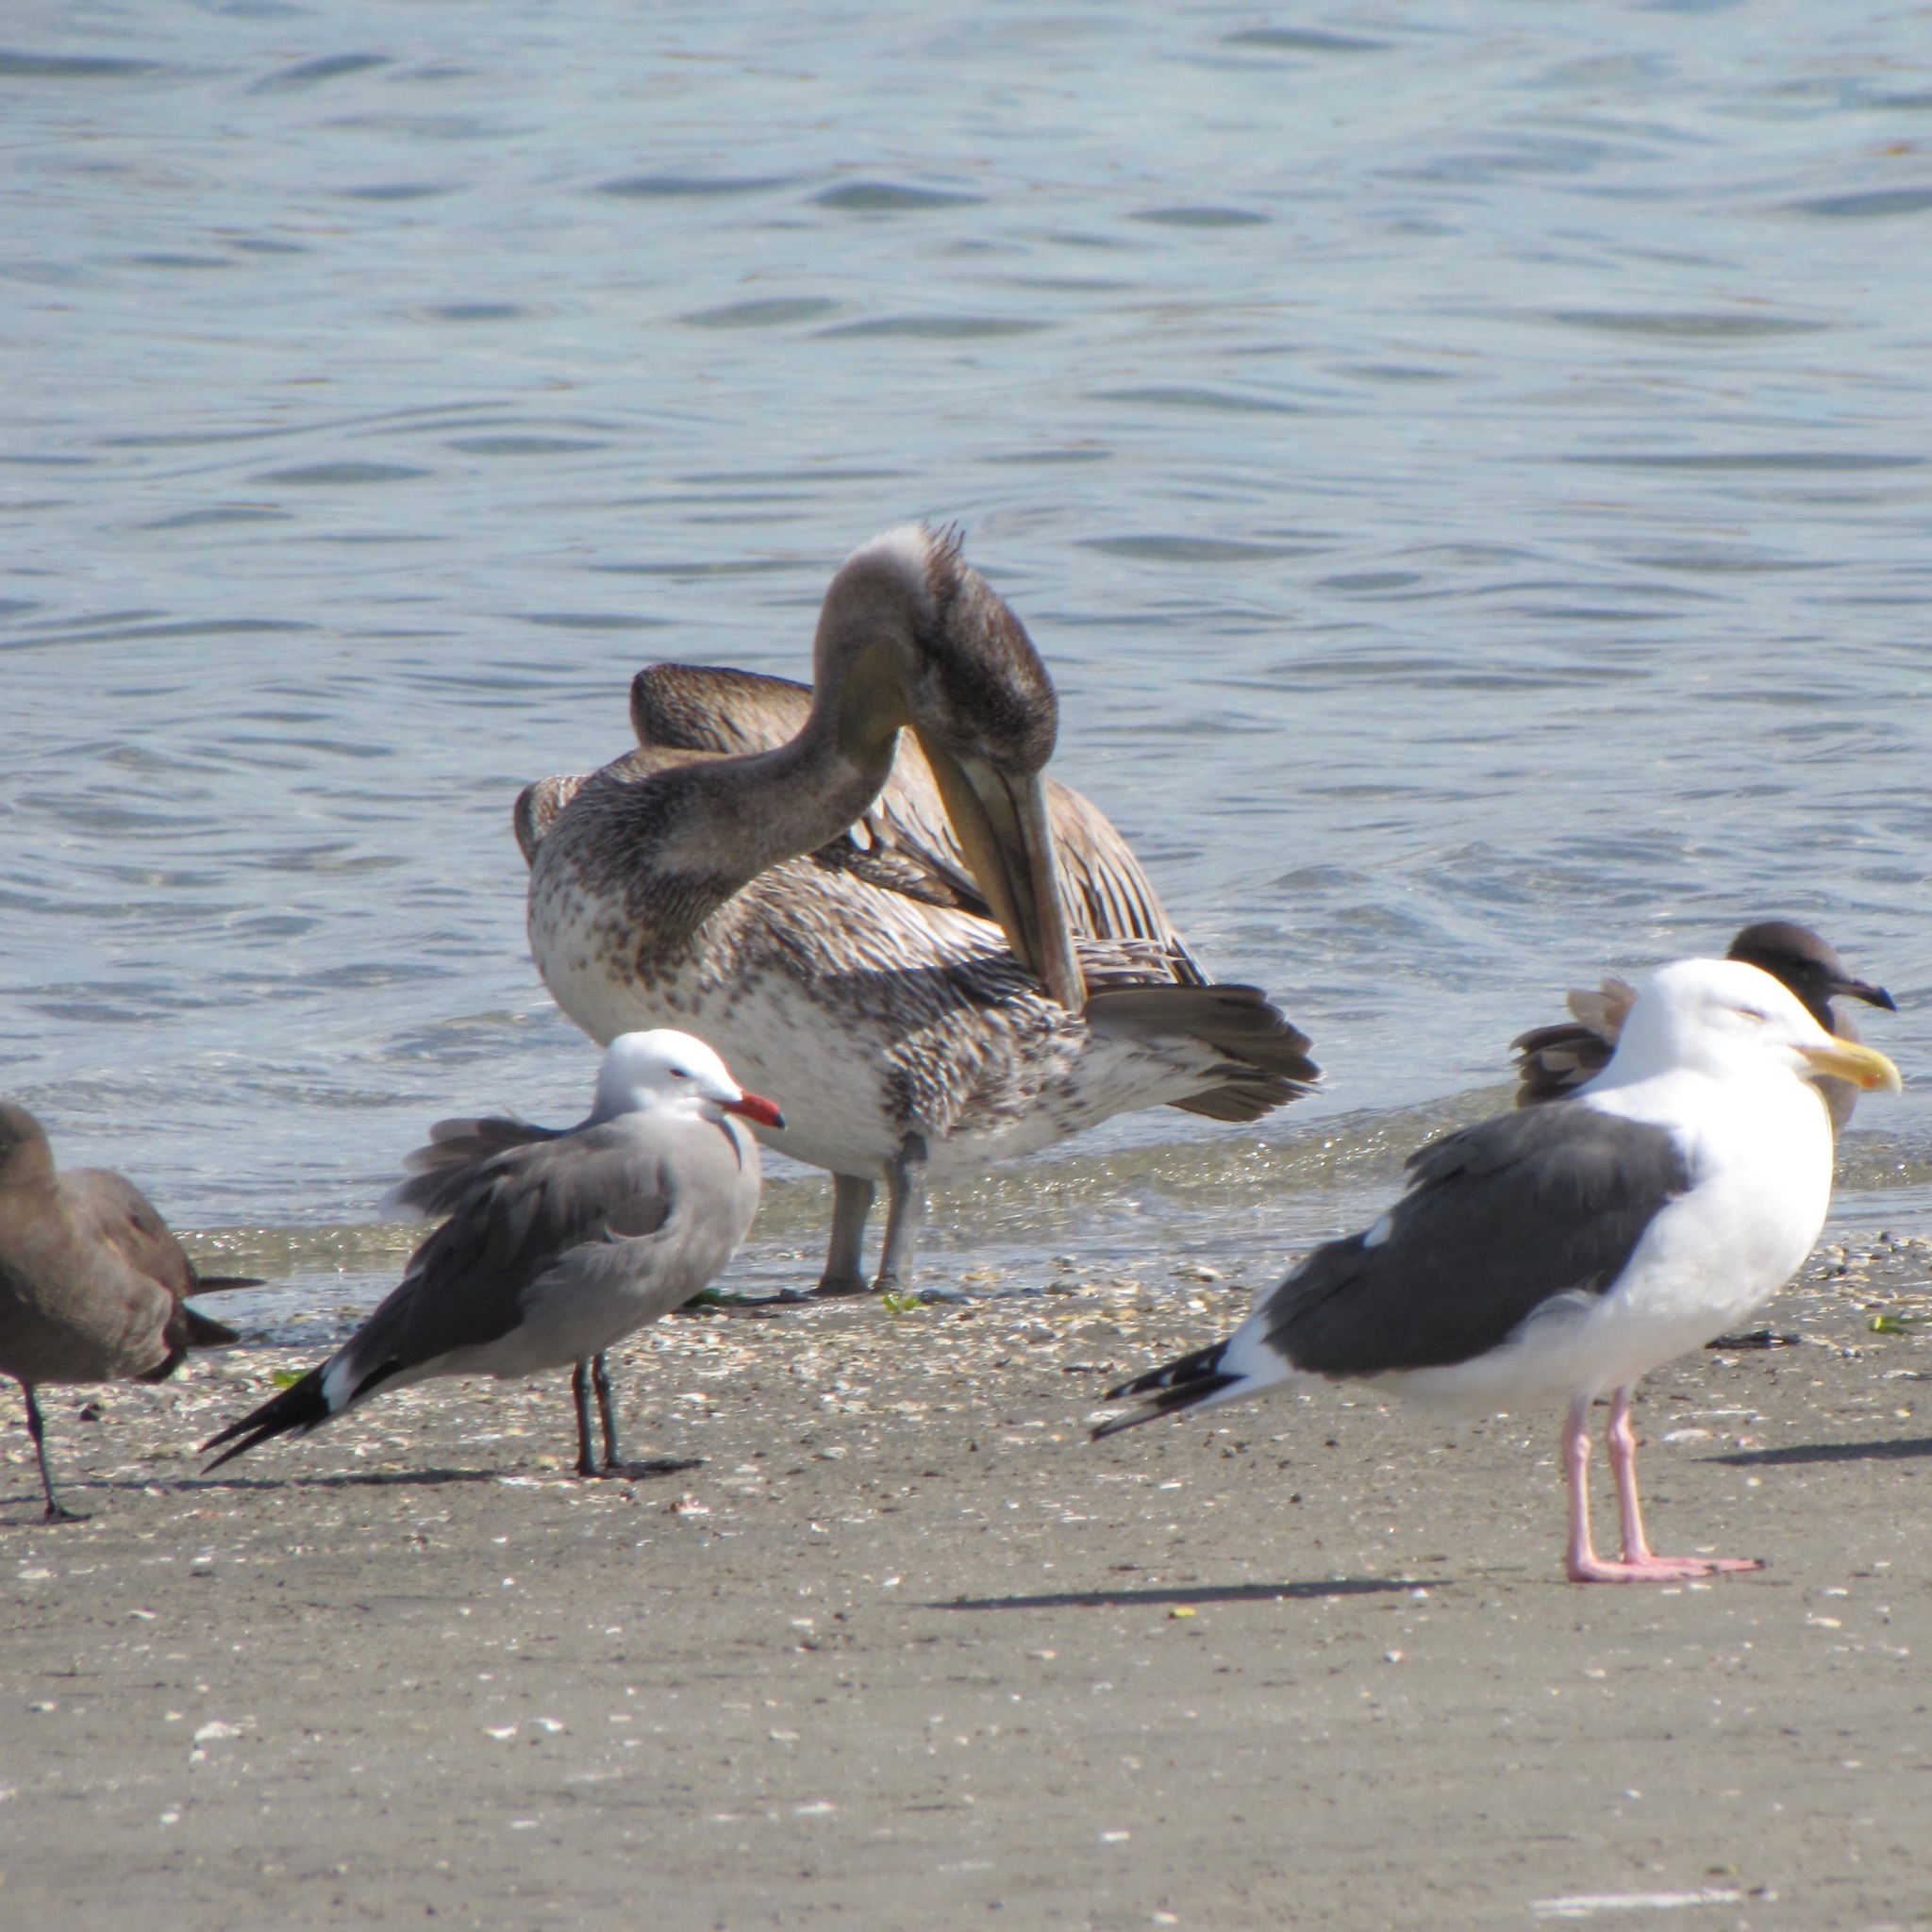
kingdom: Animalia
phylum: Chordata
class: Aves
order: Charadriiformes
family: Laridae
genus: Larus
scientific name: Larus heermanni
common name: Heermann's gull
